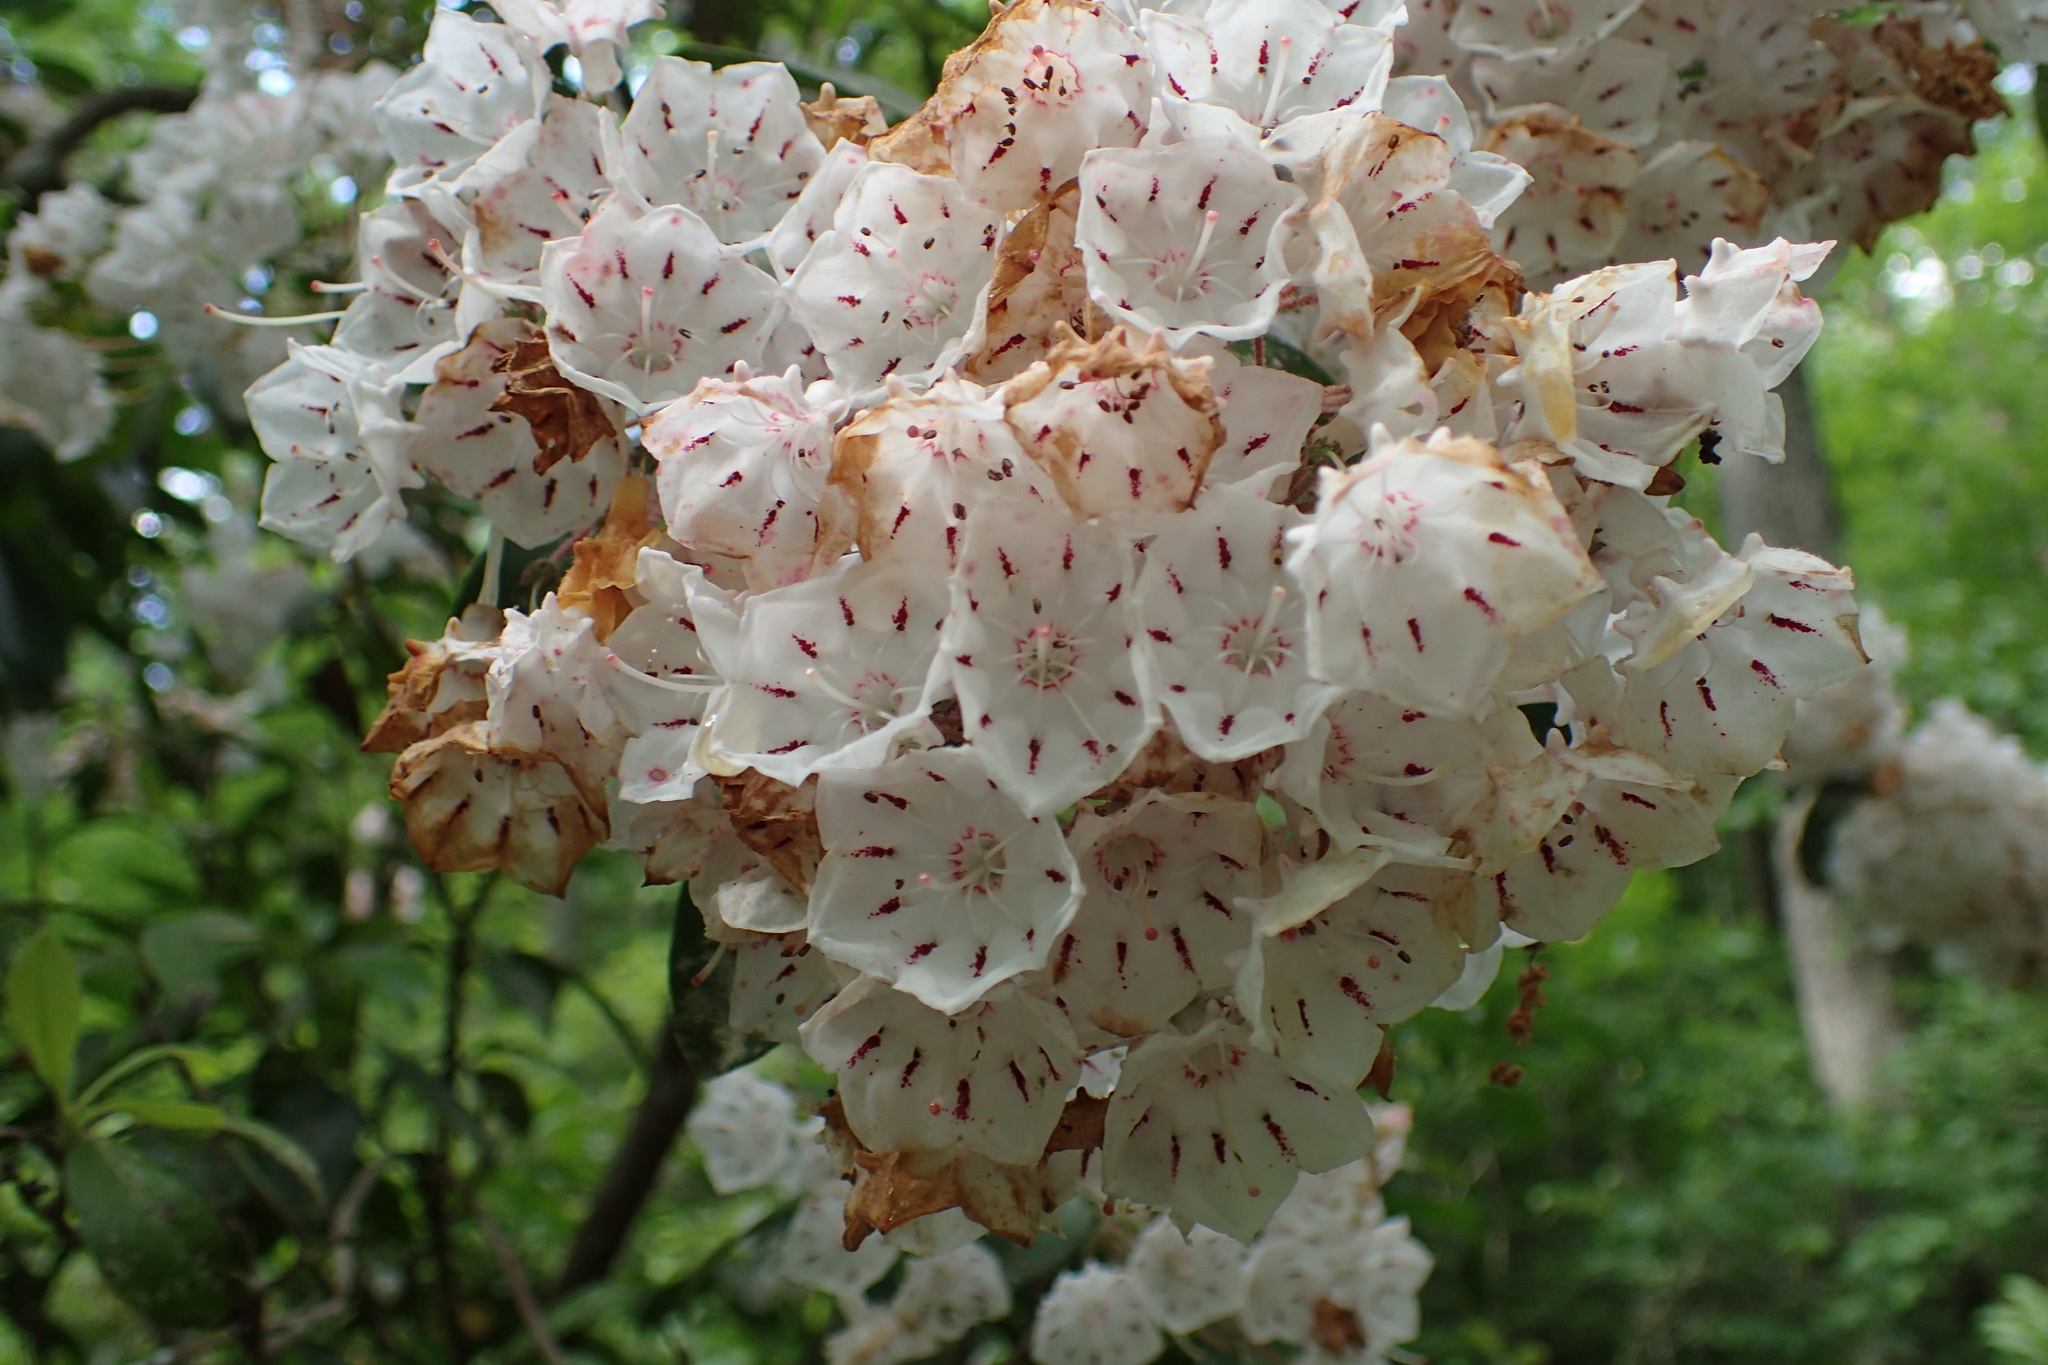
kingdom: Plantae
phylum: Tracheophyta
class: Magnoliopsida
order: Ericales
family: Ericaceae
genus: Kalmia
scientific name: Kalmia latifolia
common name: Mountain-laurel
